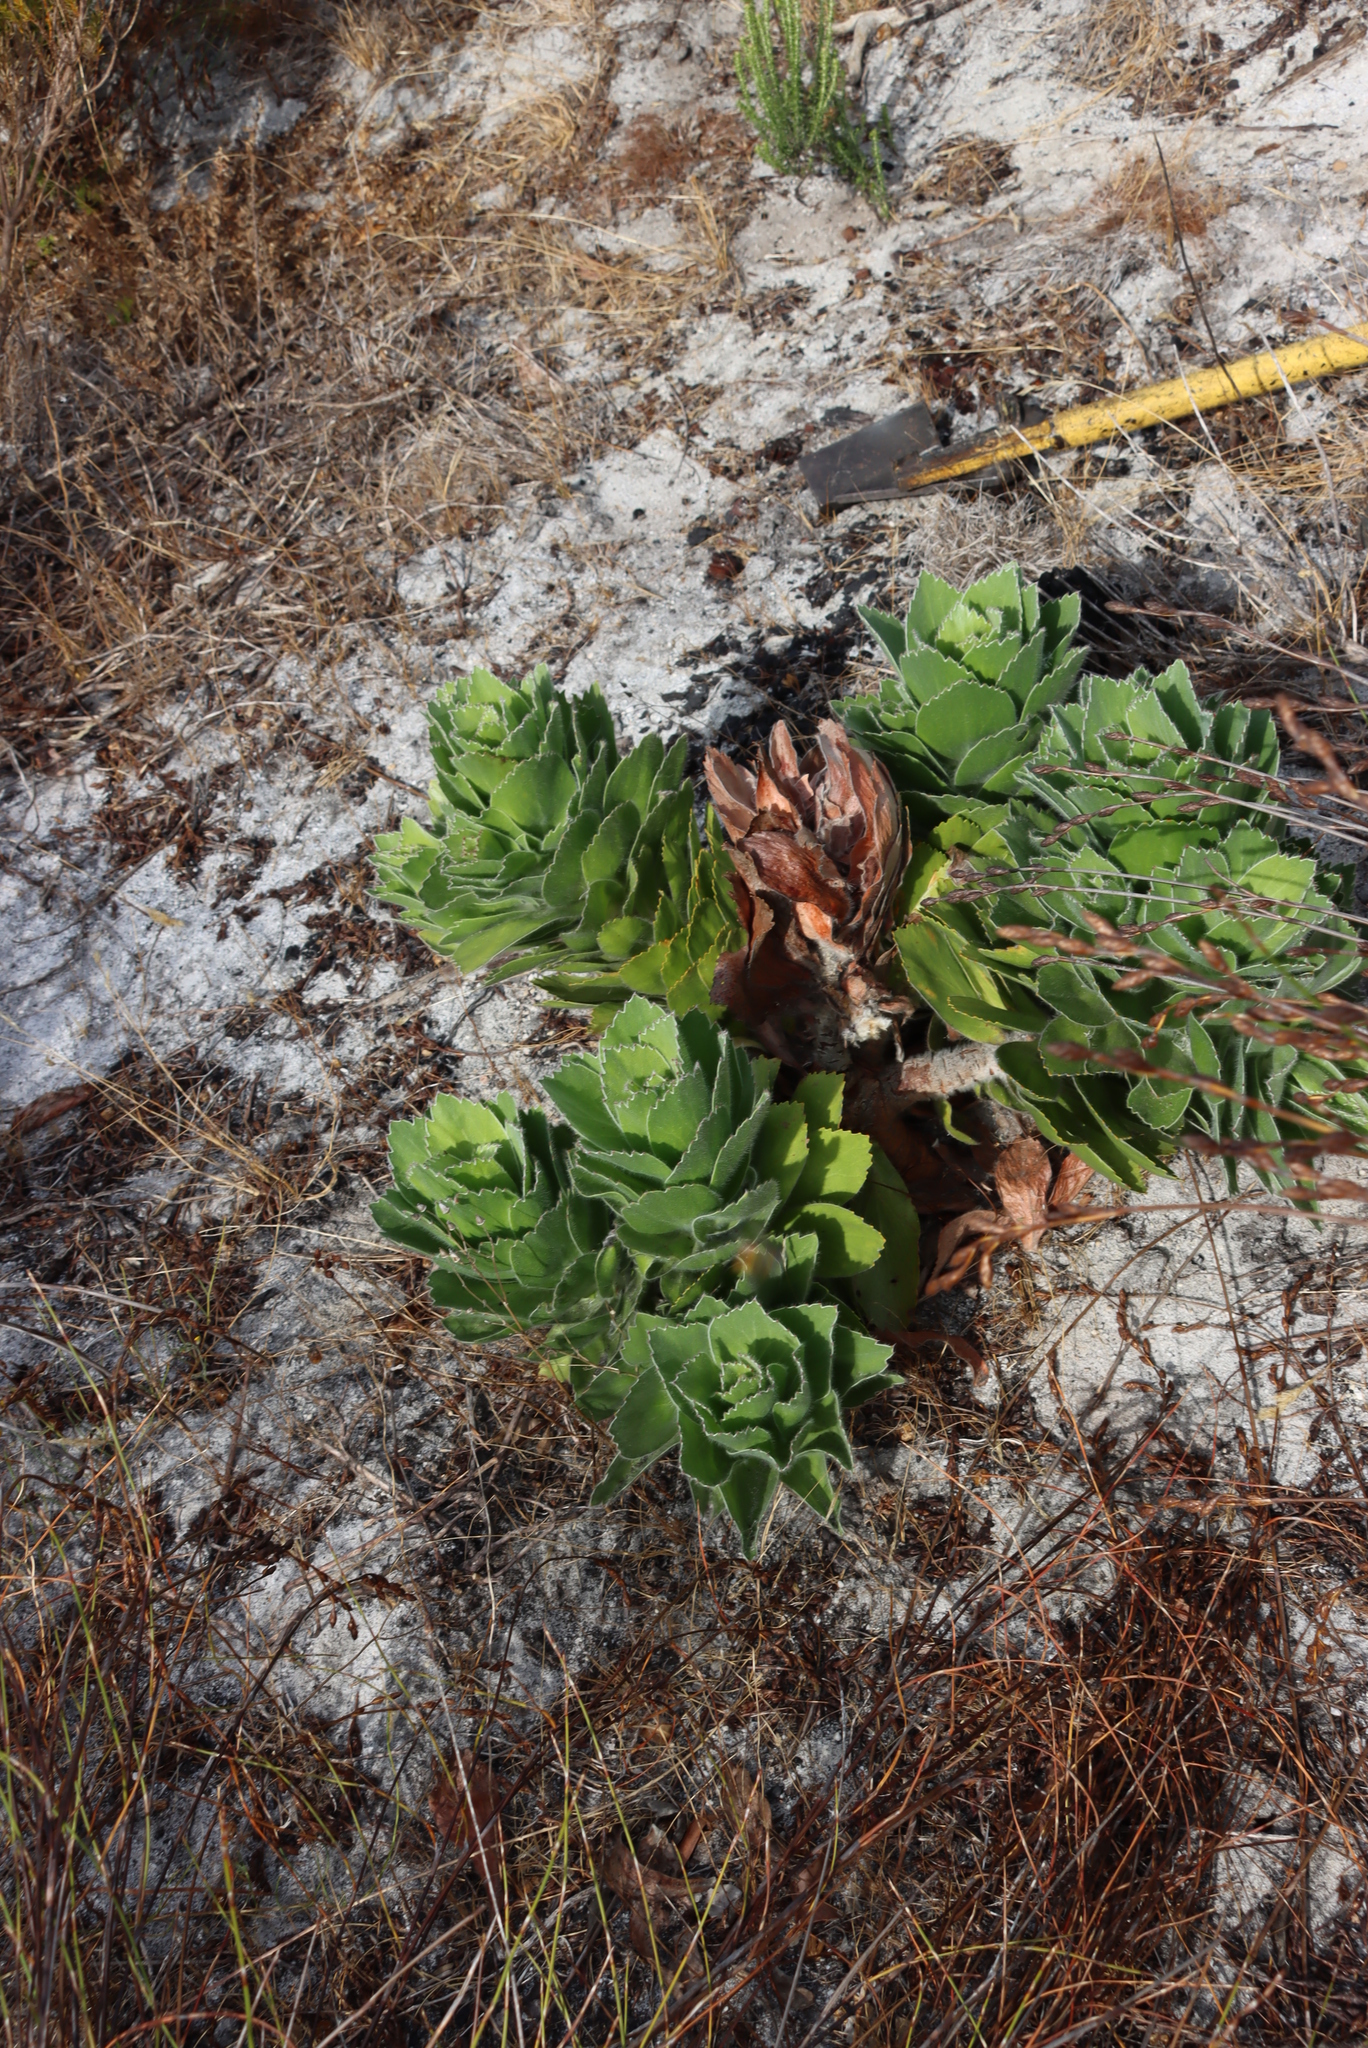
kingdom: Plantae
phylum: Tracheophyta
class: Magnoliopsida
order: Proteales
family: Proteaceae
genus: Leucospermum
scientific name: Leucospermum conocarpodendron
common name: Tree pincushion
